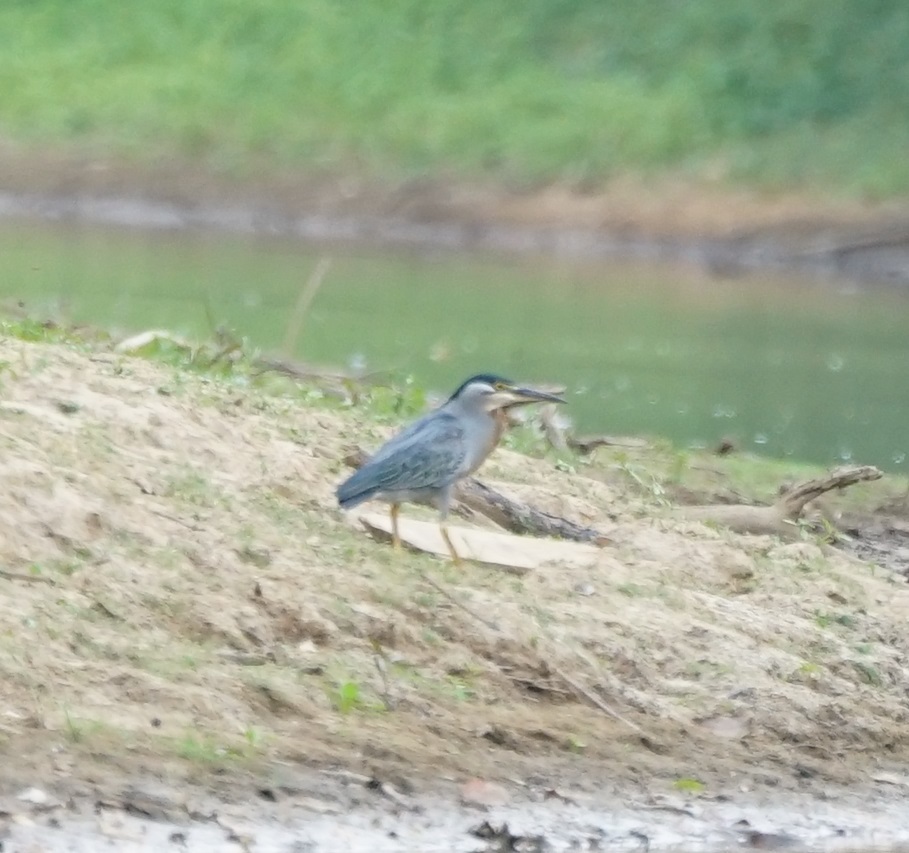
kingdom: Animalia
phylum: Chordata
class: Aves
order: Pelecaniformes
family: Ardeidae
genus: Butorides
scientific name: Butorides striata
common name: Striated heron
